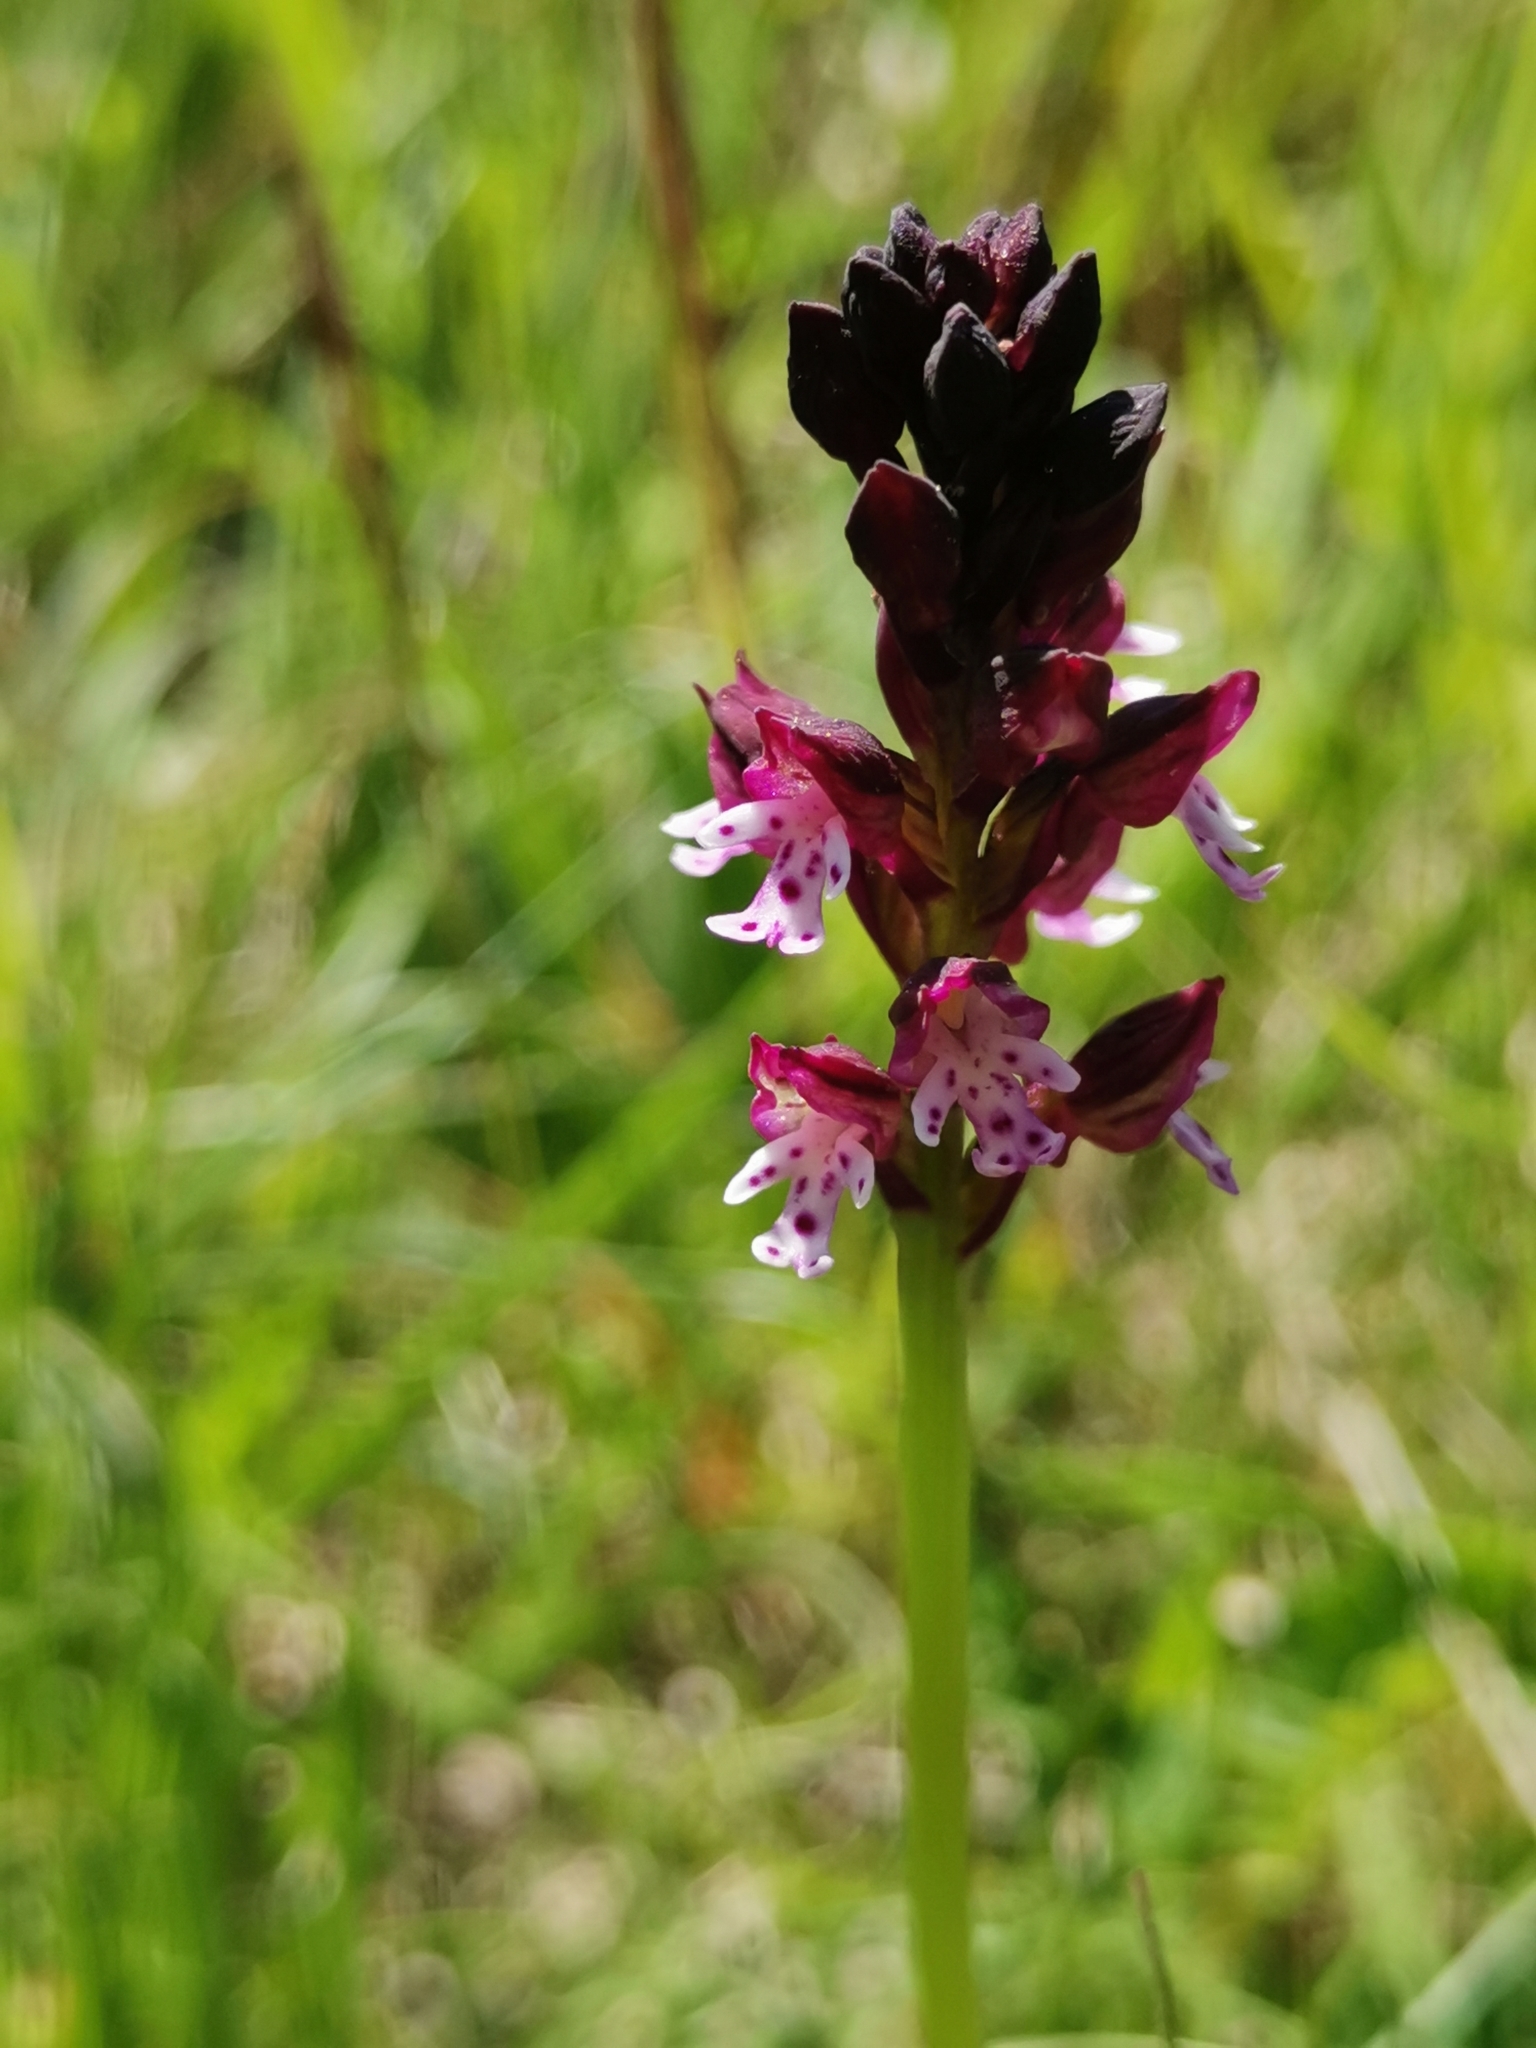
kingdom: Plantae
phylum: Tracheophyta
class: Liliopsida
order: Asparagales
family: Orchidaceae
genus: Neotinea
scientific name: Neotinea ustulata
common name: Burnt orchid
